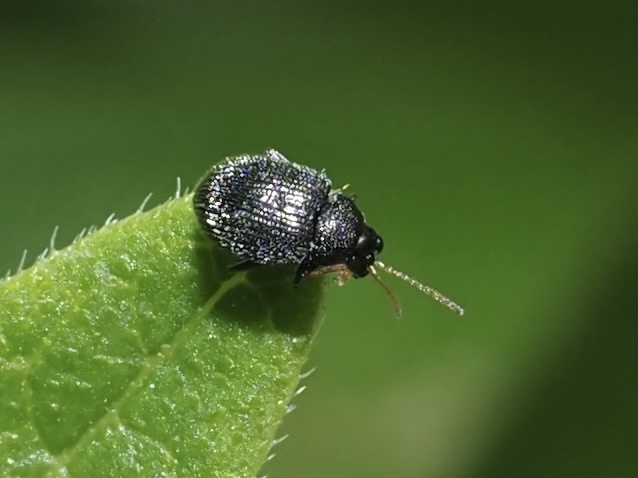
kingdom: Animalia
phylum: Arthropoda
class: Insecta
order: Coleoptera
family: Chrysomelidae
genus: Epitrix
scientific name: Epitrix fuscula
